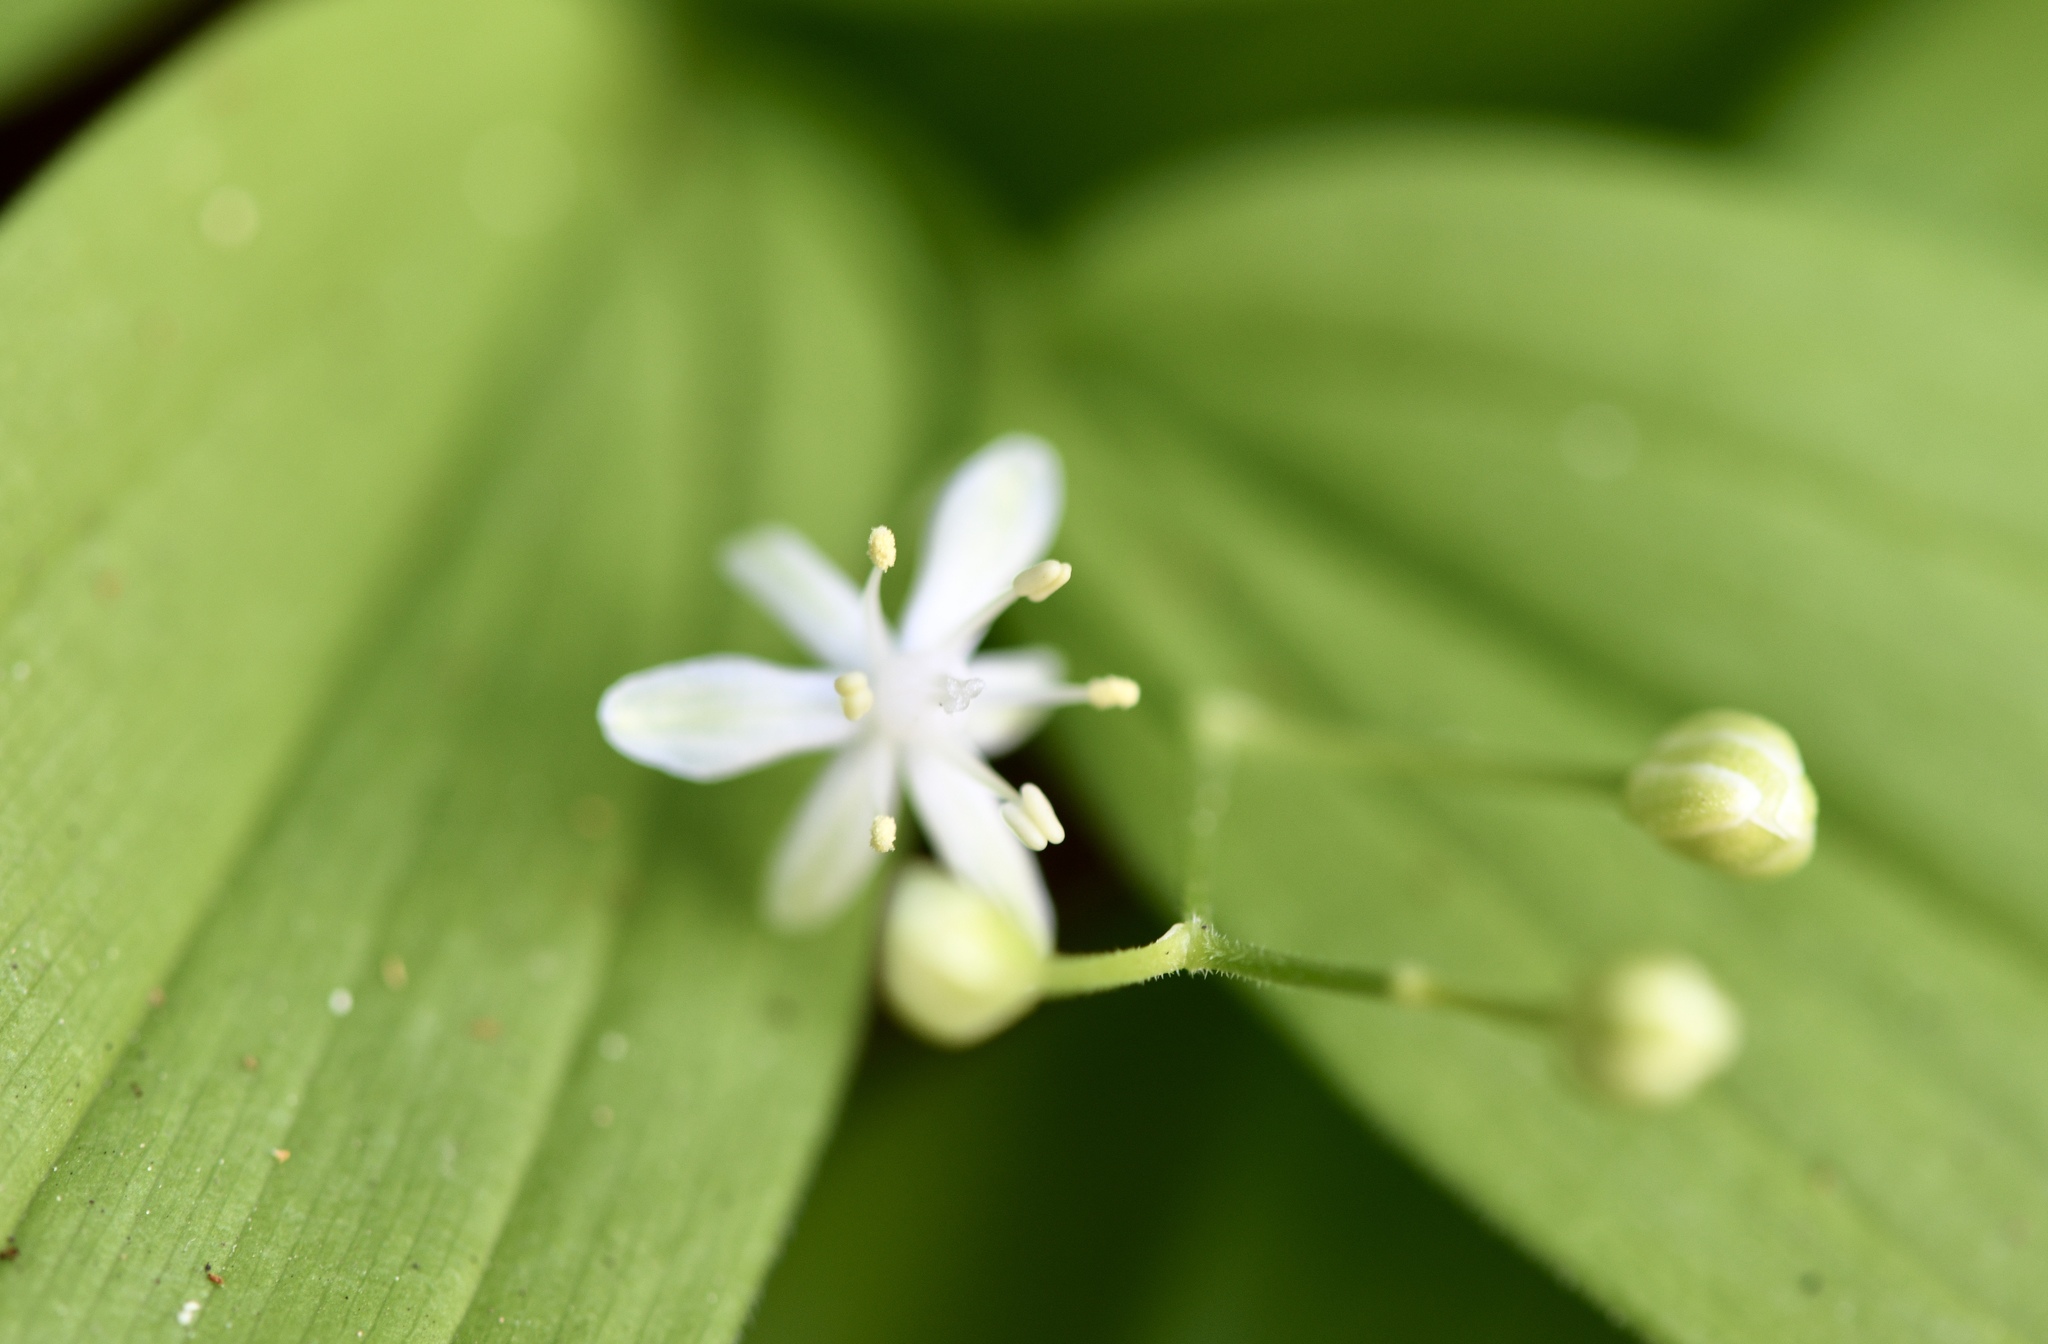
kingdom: Plantae
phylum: Tracheophyta
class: Liliopsida
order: Asparagales
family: Asparagaceae
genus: Maianthemum
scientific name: Maianthemum stellatum
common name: Little false solomon's seal
